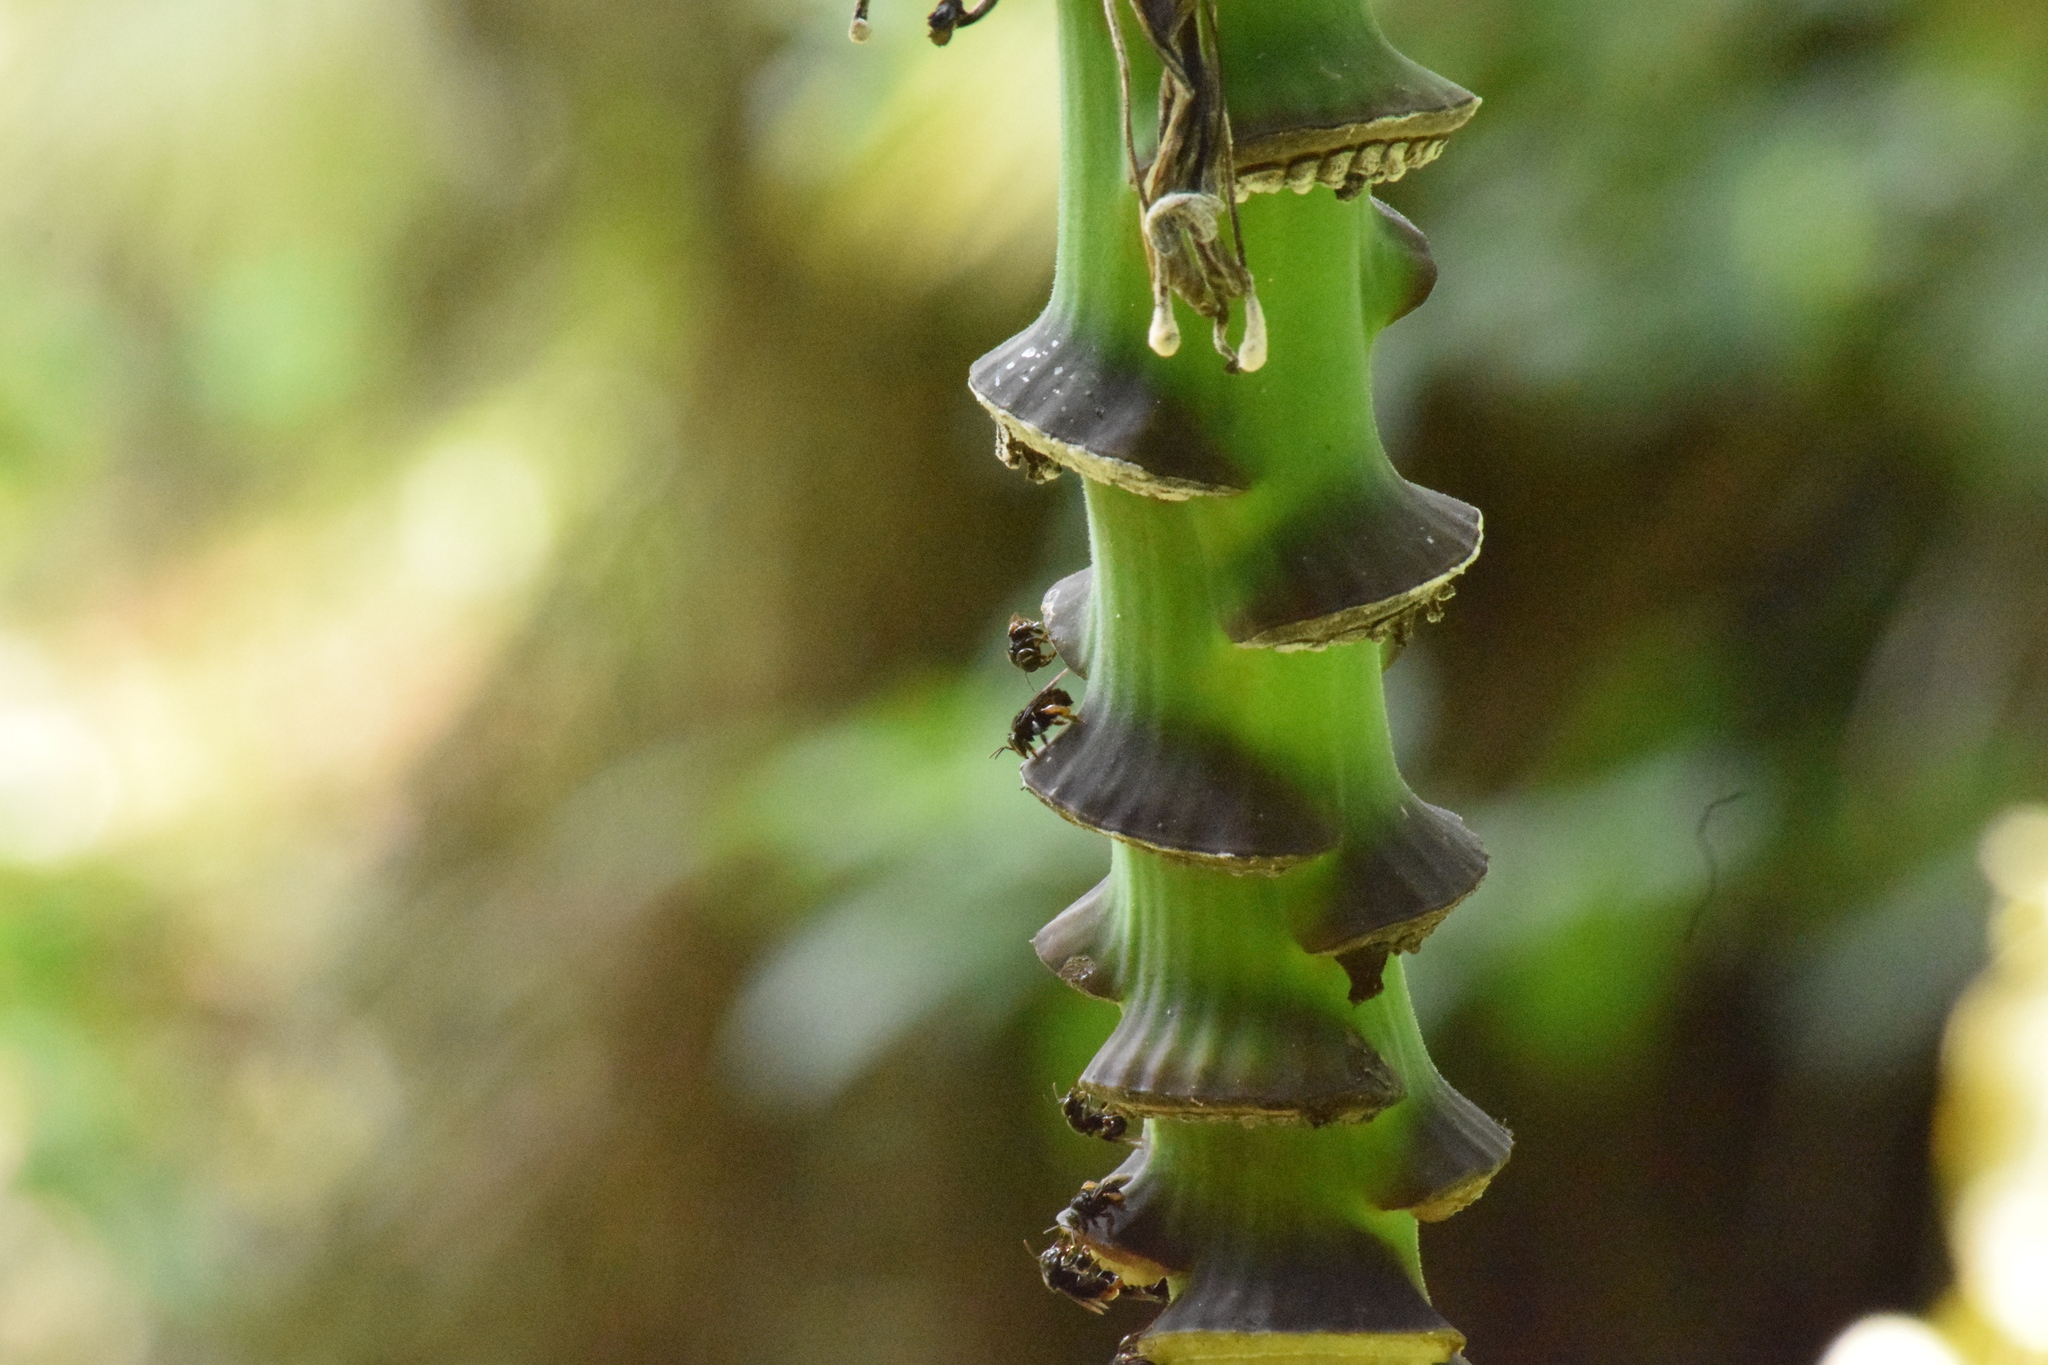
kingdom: Animalia
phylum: Arthropoda
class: Insecta
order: Hymenoptera
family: Apidae
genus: Trigona
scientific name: Trigona spinipes
